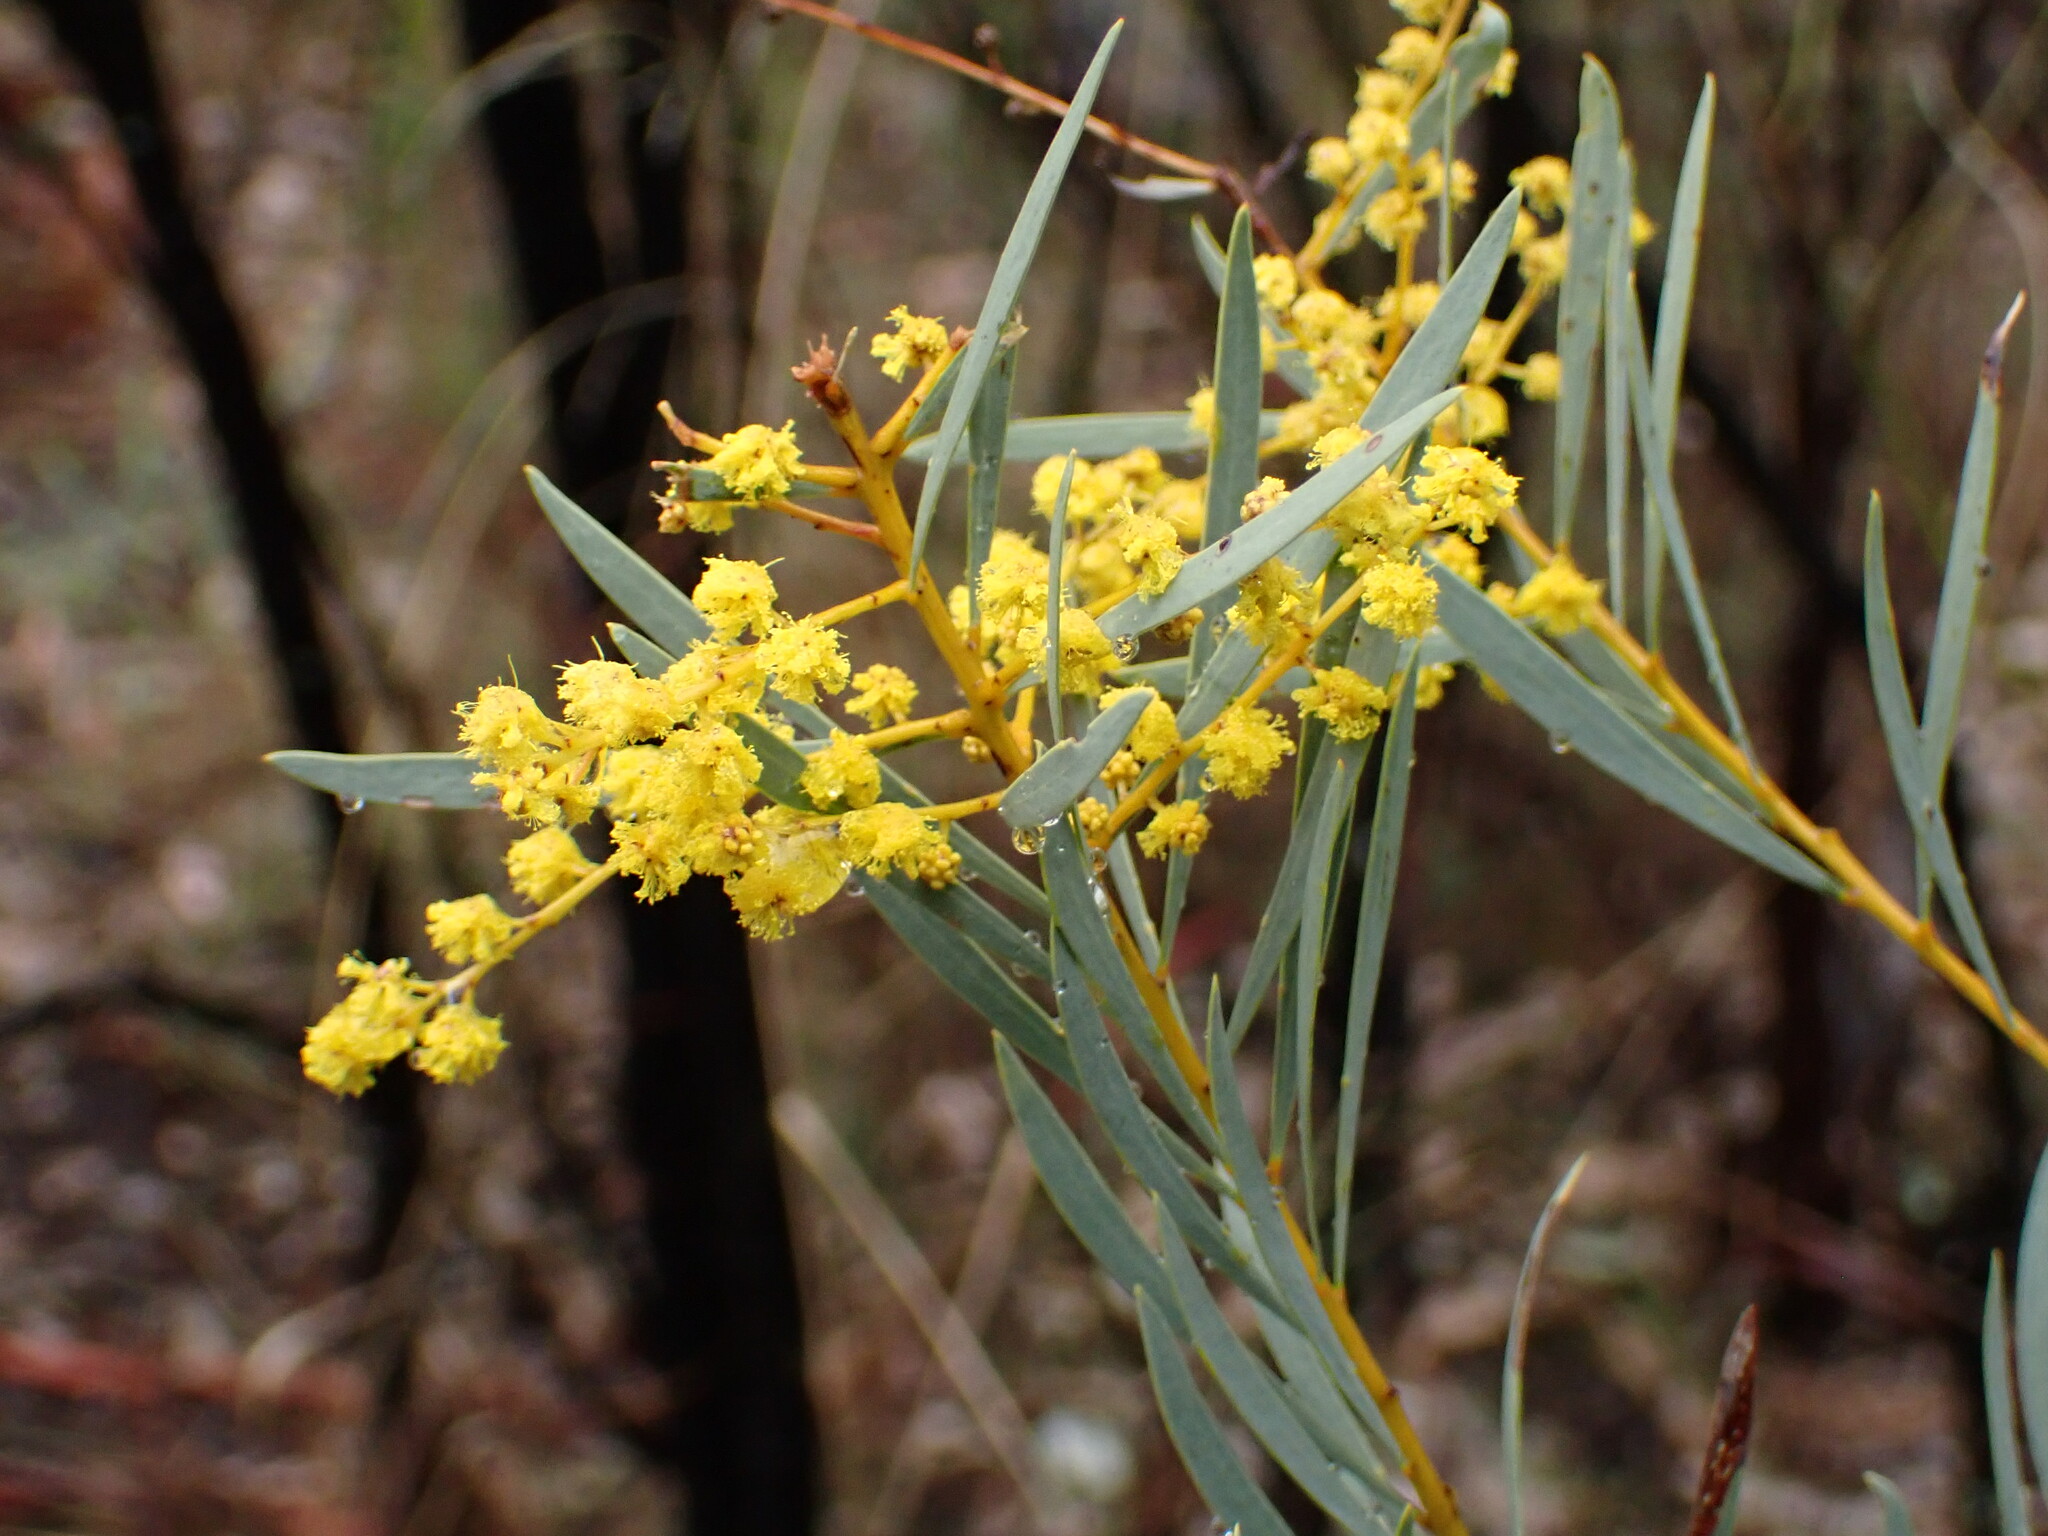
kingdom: Plantae
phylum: Tracheophyta
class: Magnoliopsida
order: Fabales
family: Fabaceae
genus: Acacia
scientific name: Acacia decora
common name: Showy wattle
